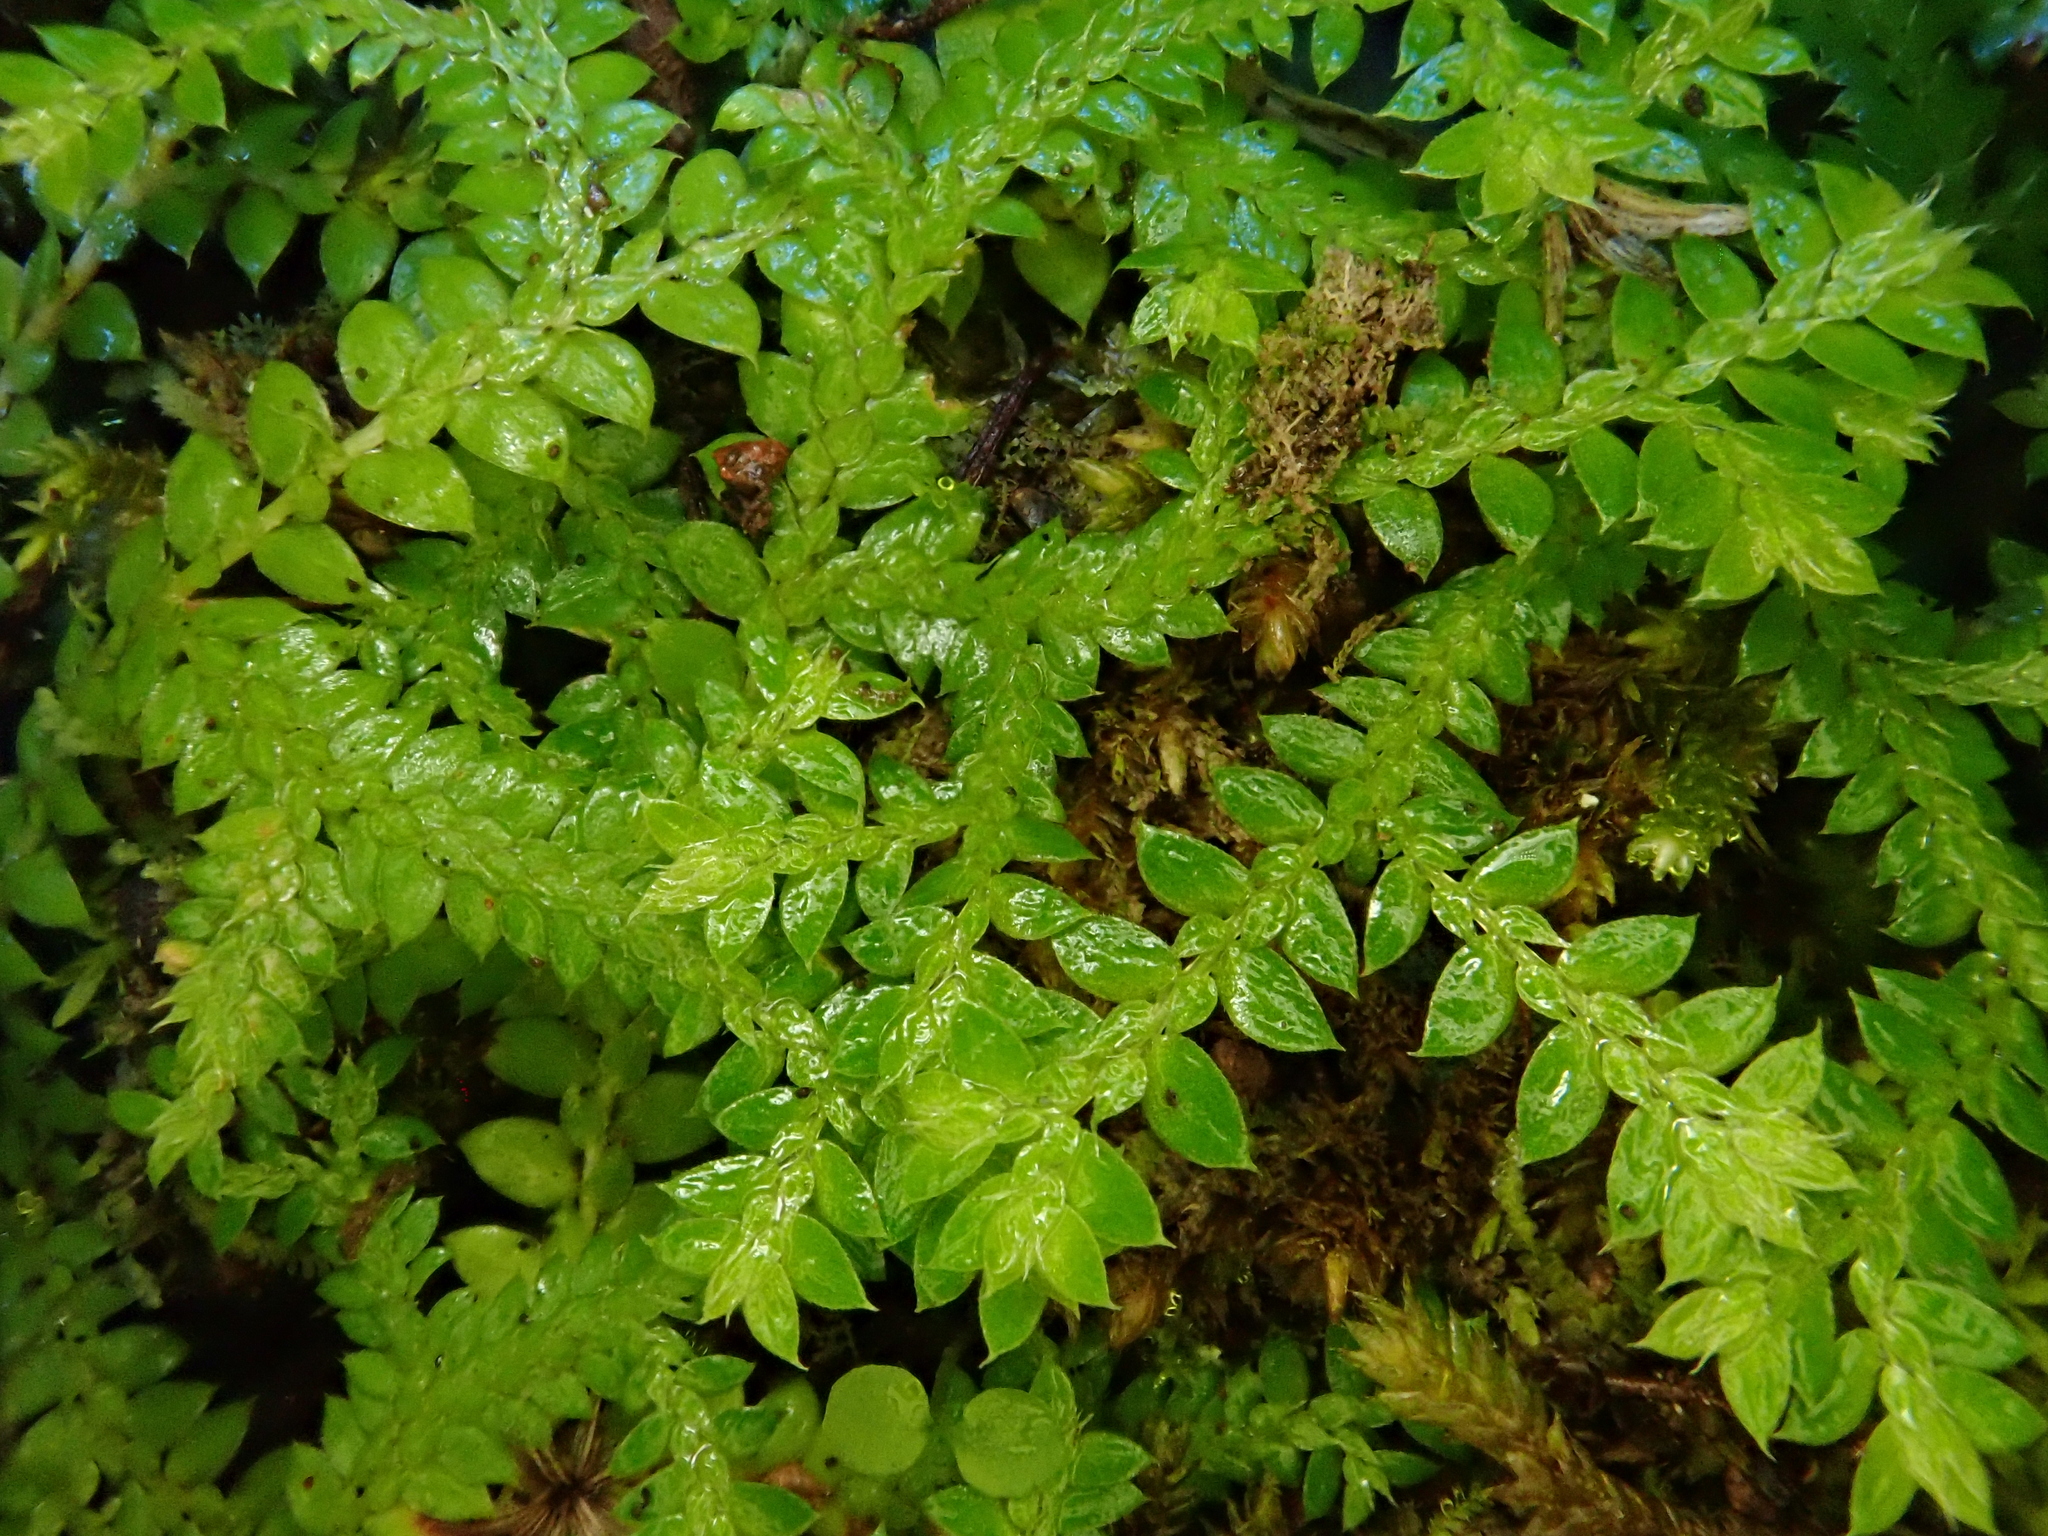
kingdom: Plantae
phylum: Tracheophyta
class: Lycopodiopsida
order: Selaginellales
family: Selaginellaceae
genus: Selaginella
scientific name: Selaginella denticulata
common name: Toothed-leaved clubmoss
